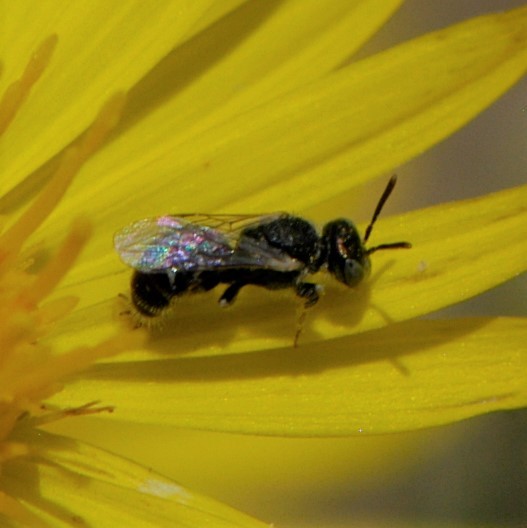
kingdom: Animalia
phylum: Arthropoda
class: Insecta
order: Hymenoptera
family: Andrenidae
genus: Perdita
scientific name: Perdita
